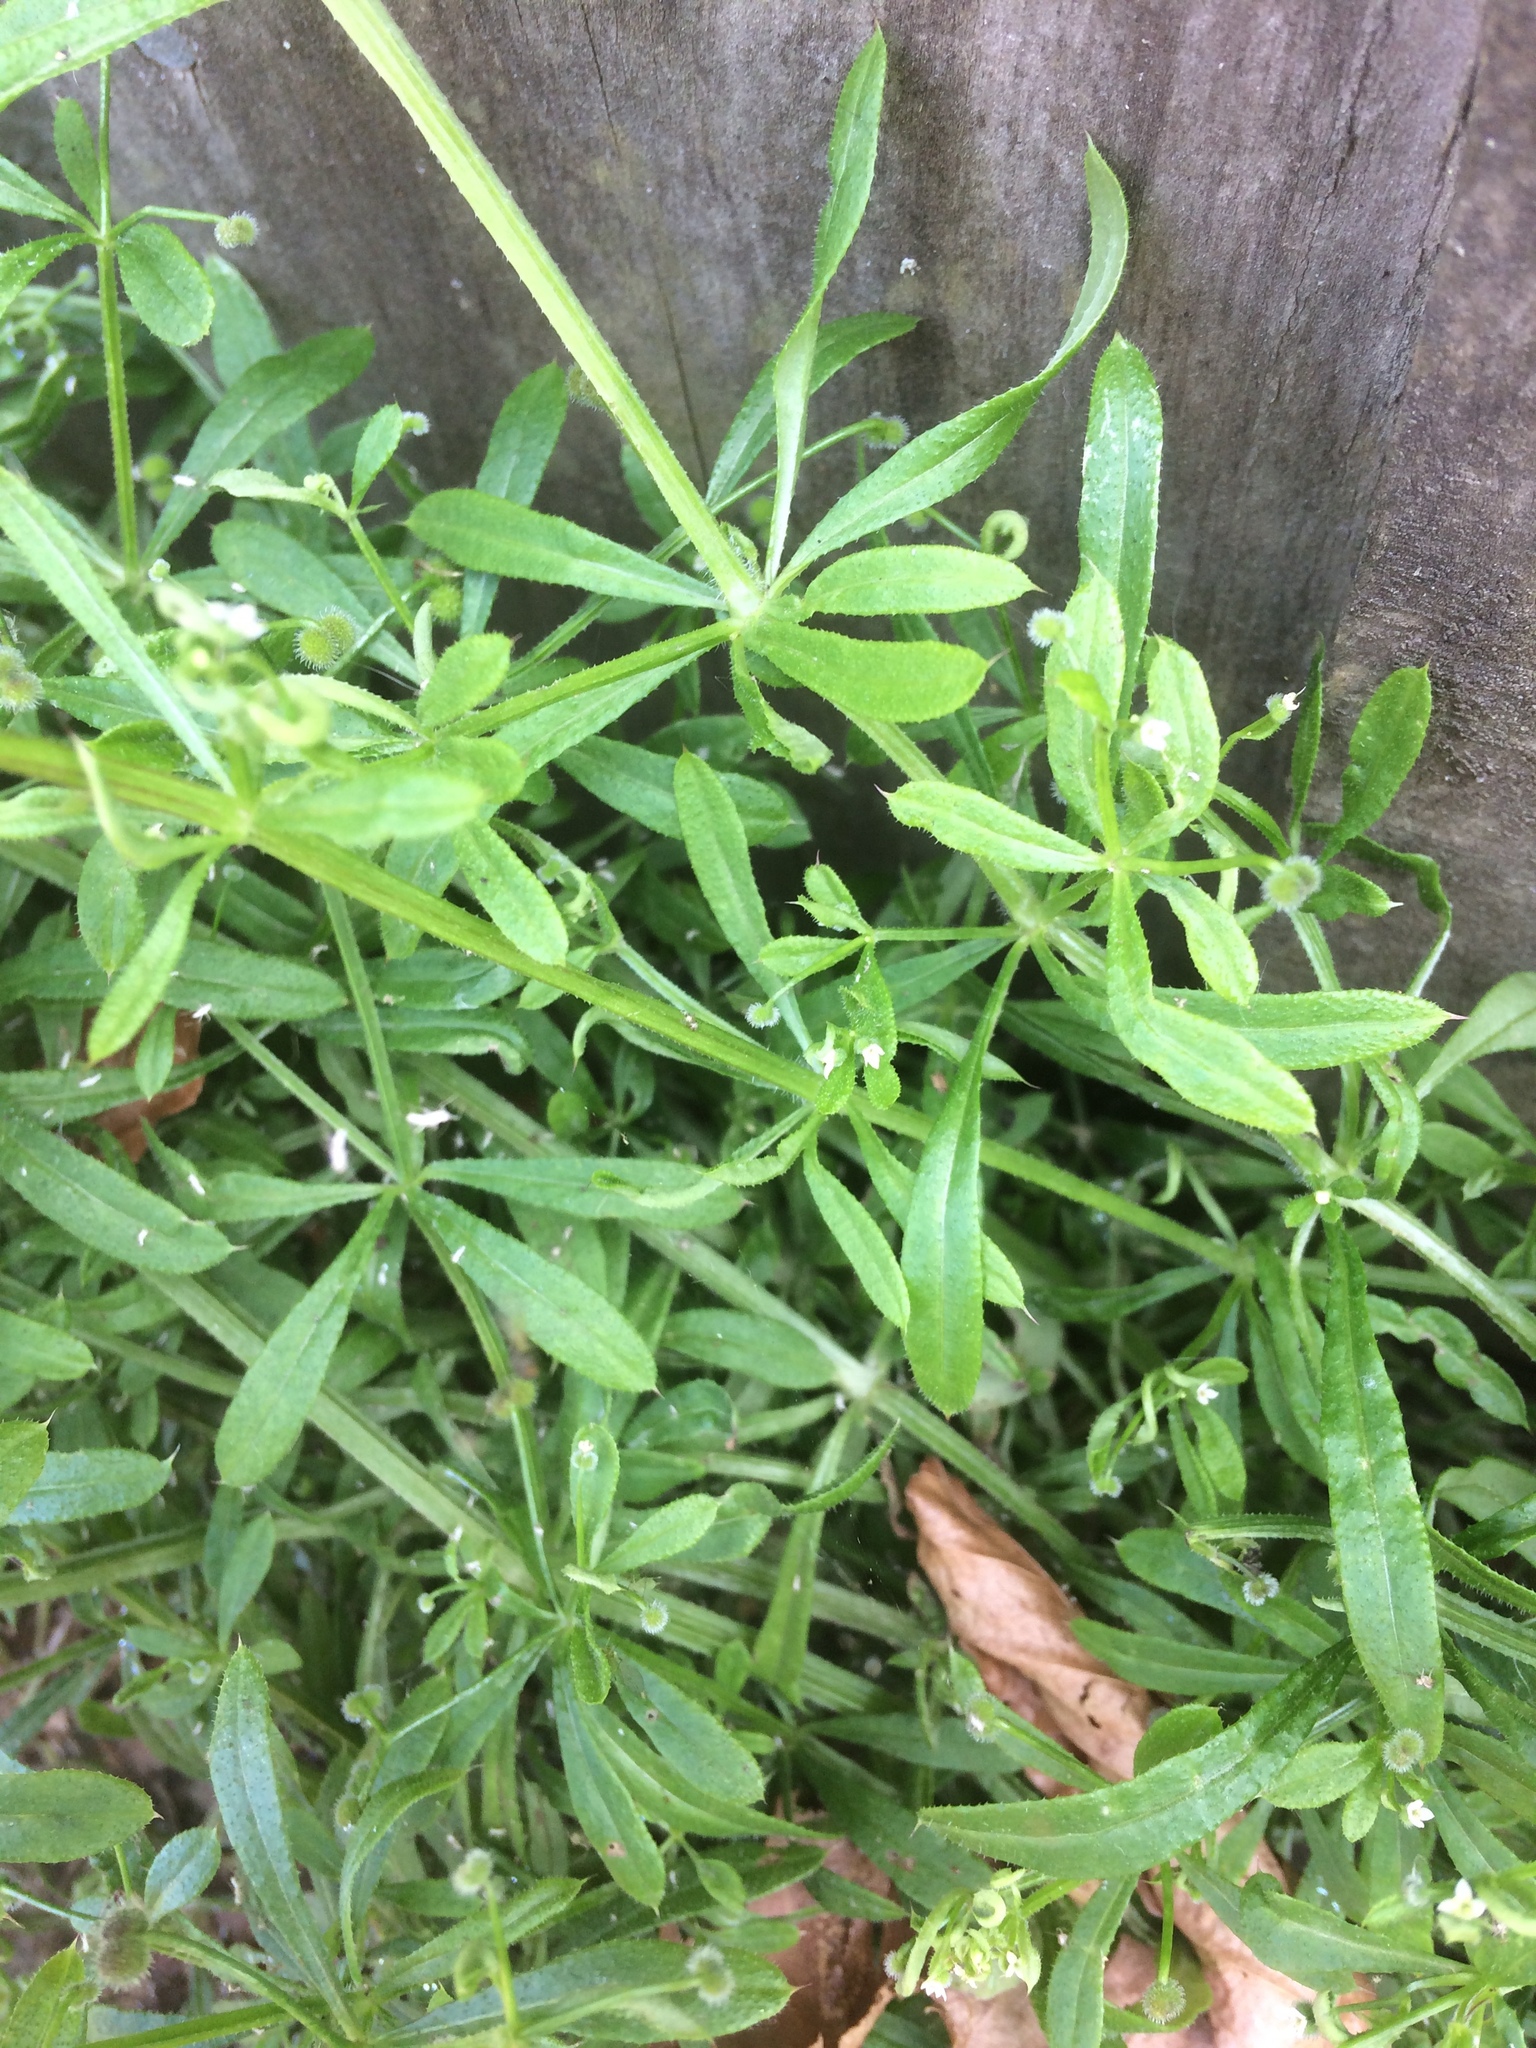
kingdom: Plantae
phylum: Tracheophyta
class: Magnoliopsida
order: Gentianales
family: Rubiaceae
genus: Galium
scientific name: Galium aparine
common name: Cleavers
